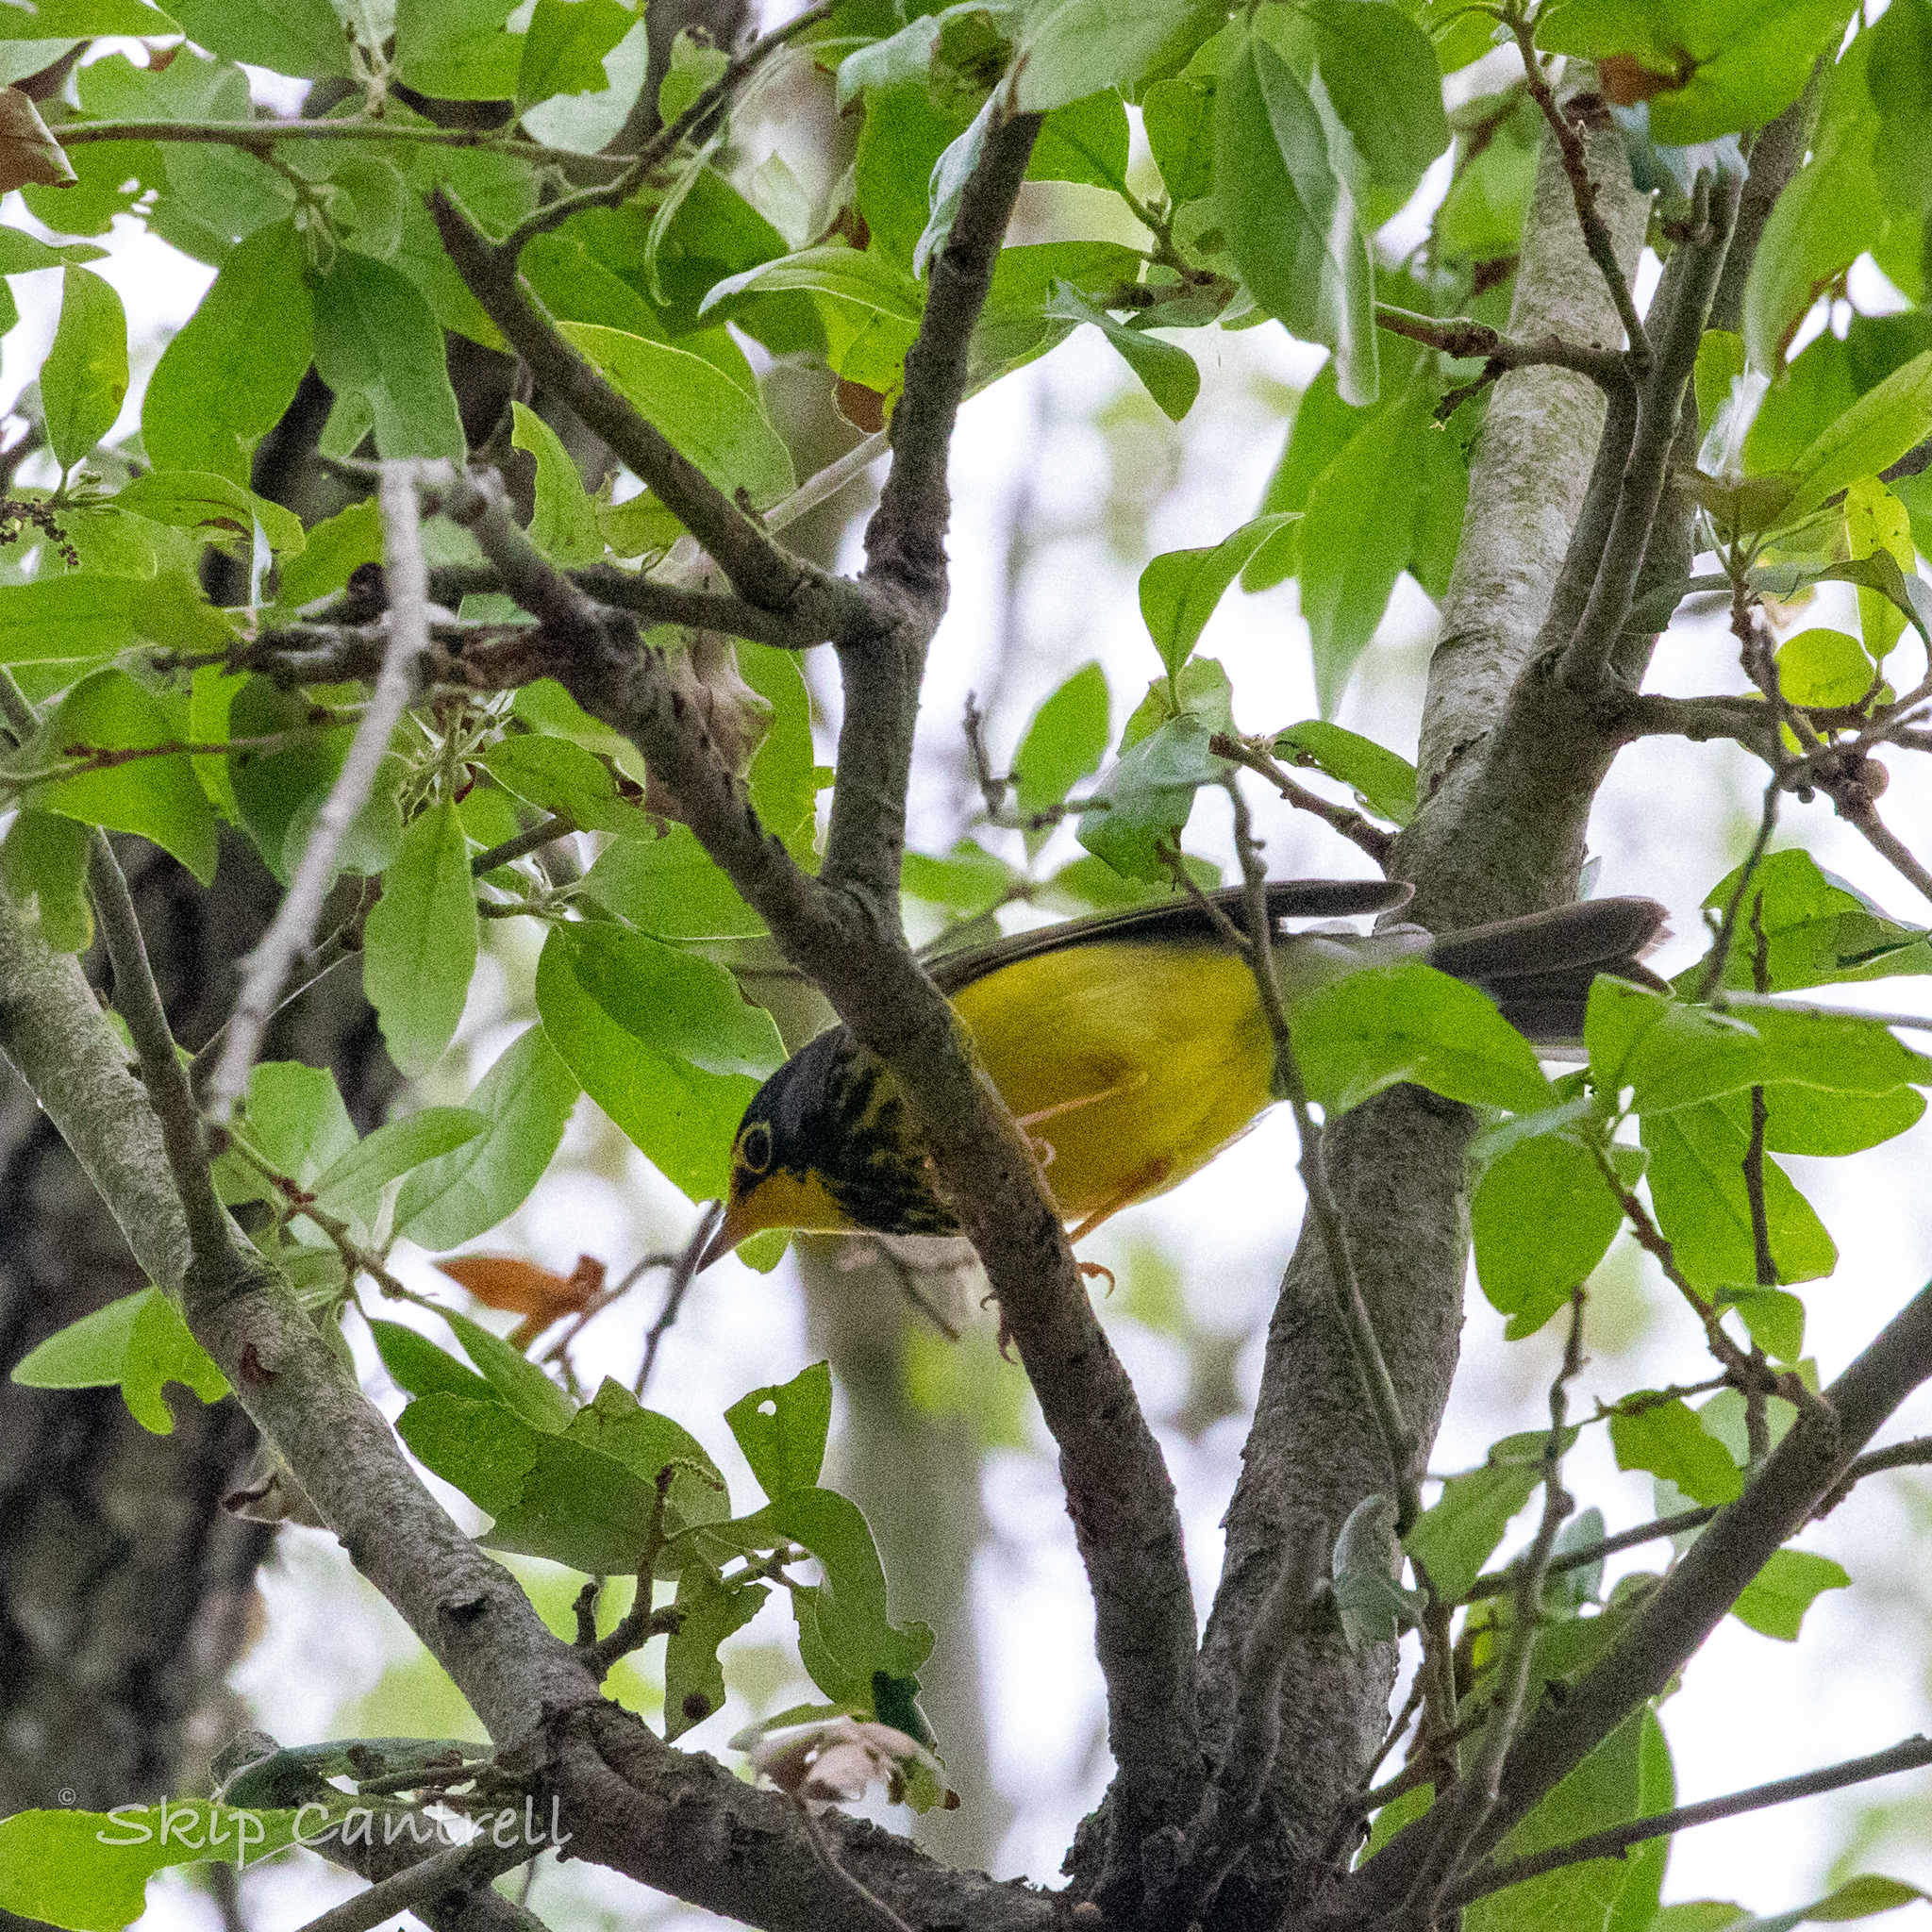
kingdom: Animalia
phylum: Chordata
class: Aves
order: Passeriformes
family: Parulidae
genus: Cardellina
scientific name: Cardellina canadensis
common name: Canada warbler
